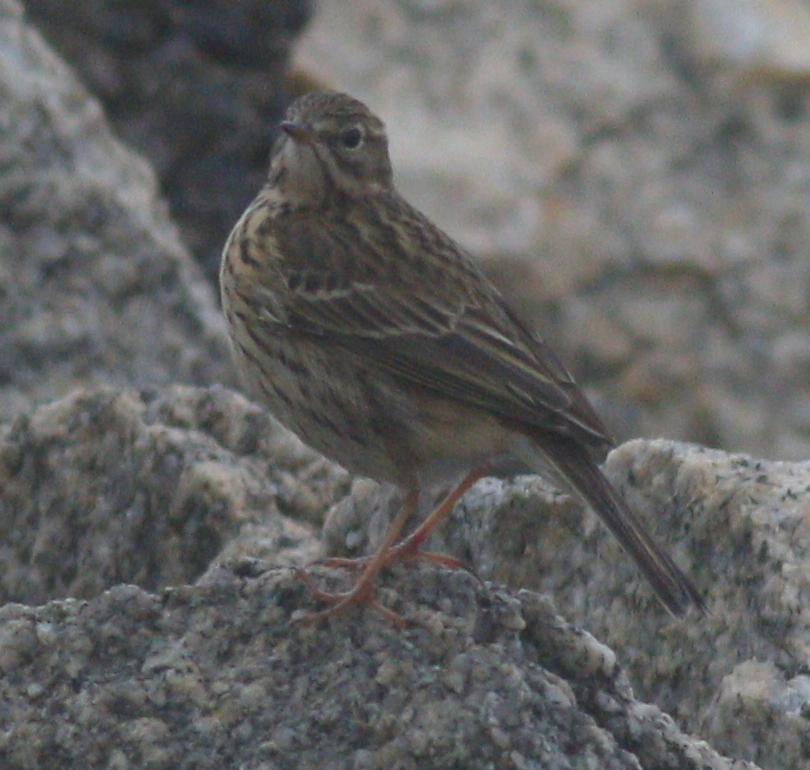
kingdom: Animalia
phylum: Chordata
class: Aves
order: Passeriformes
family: Motacillidae
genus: Anthus
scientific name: Anthus pratensis
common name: Meadow pipit
